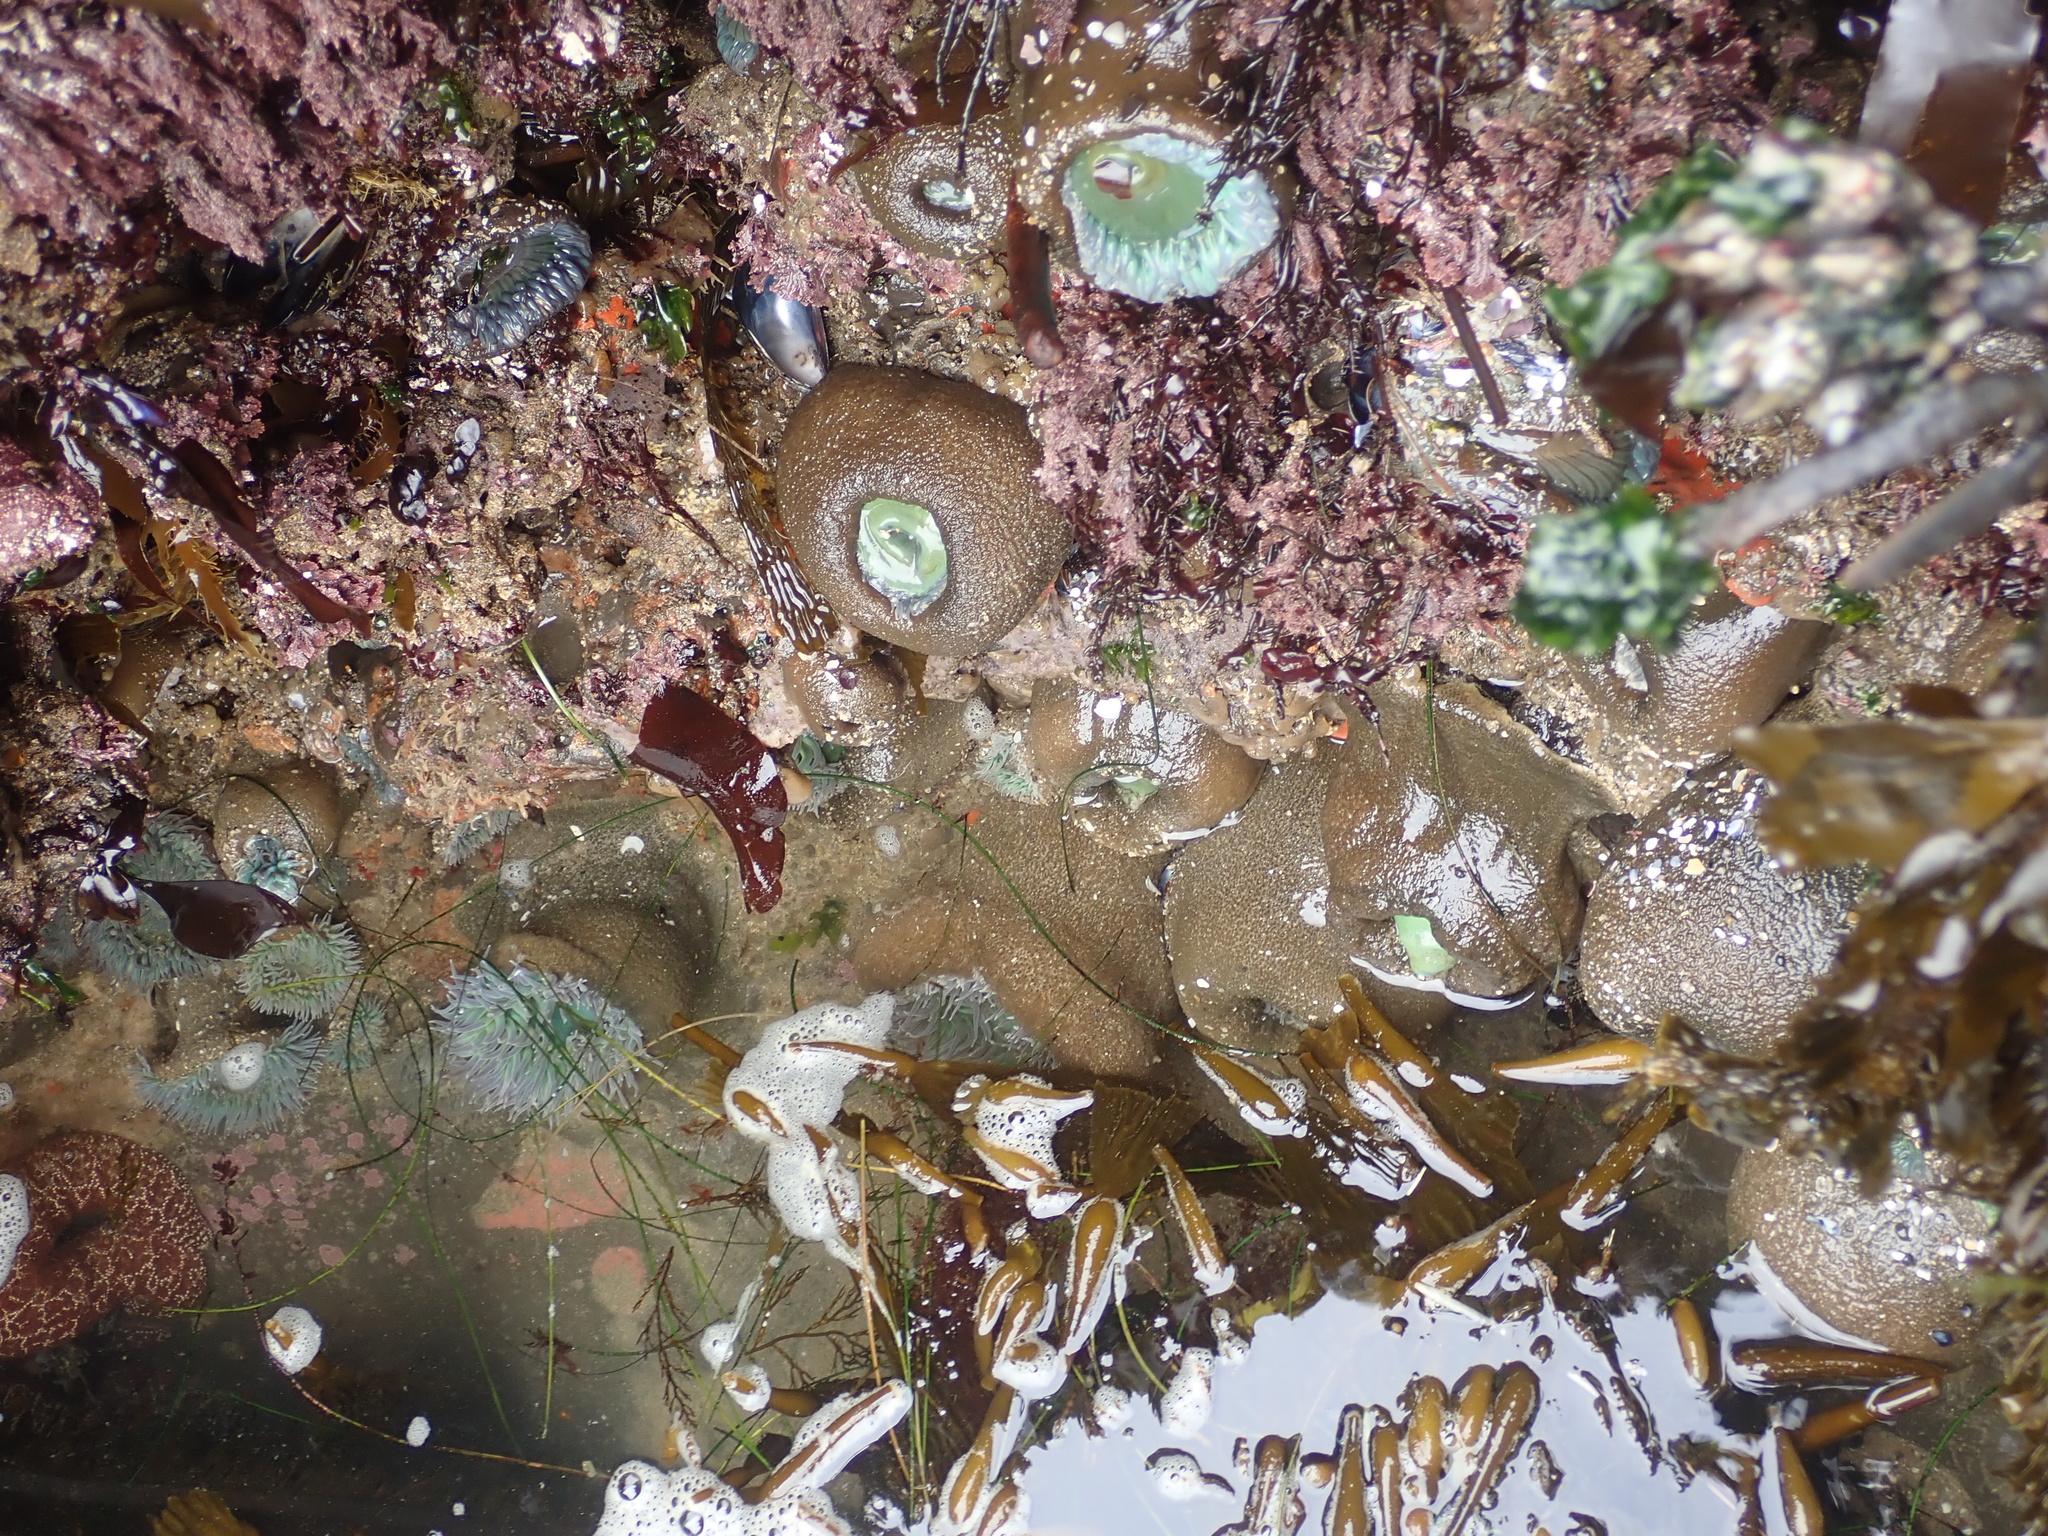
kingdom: Animalia
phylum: Cnidaria
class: Anthozoa
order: Actiniaria
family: Actiniidae
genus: Anthopleura
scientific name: Anthopleura xanthogrammica
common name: Giant green anemone
